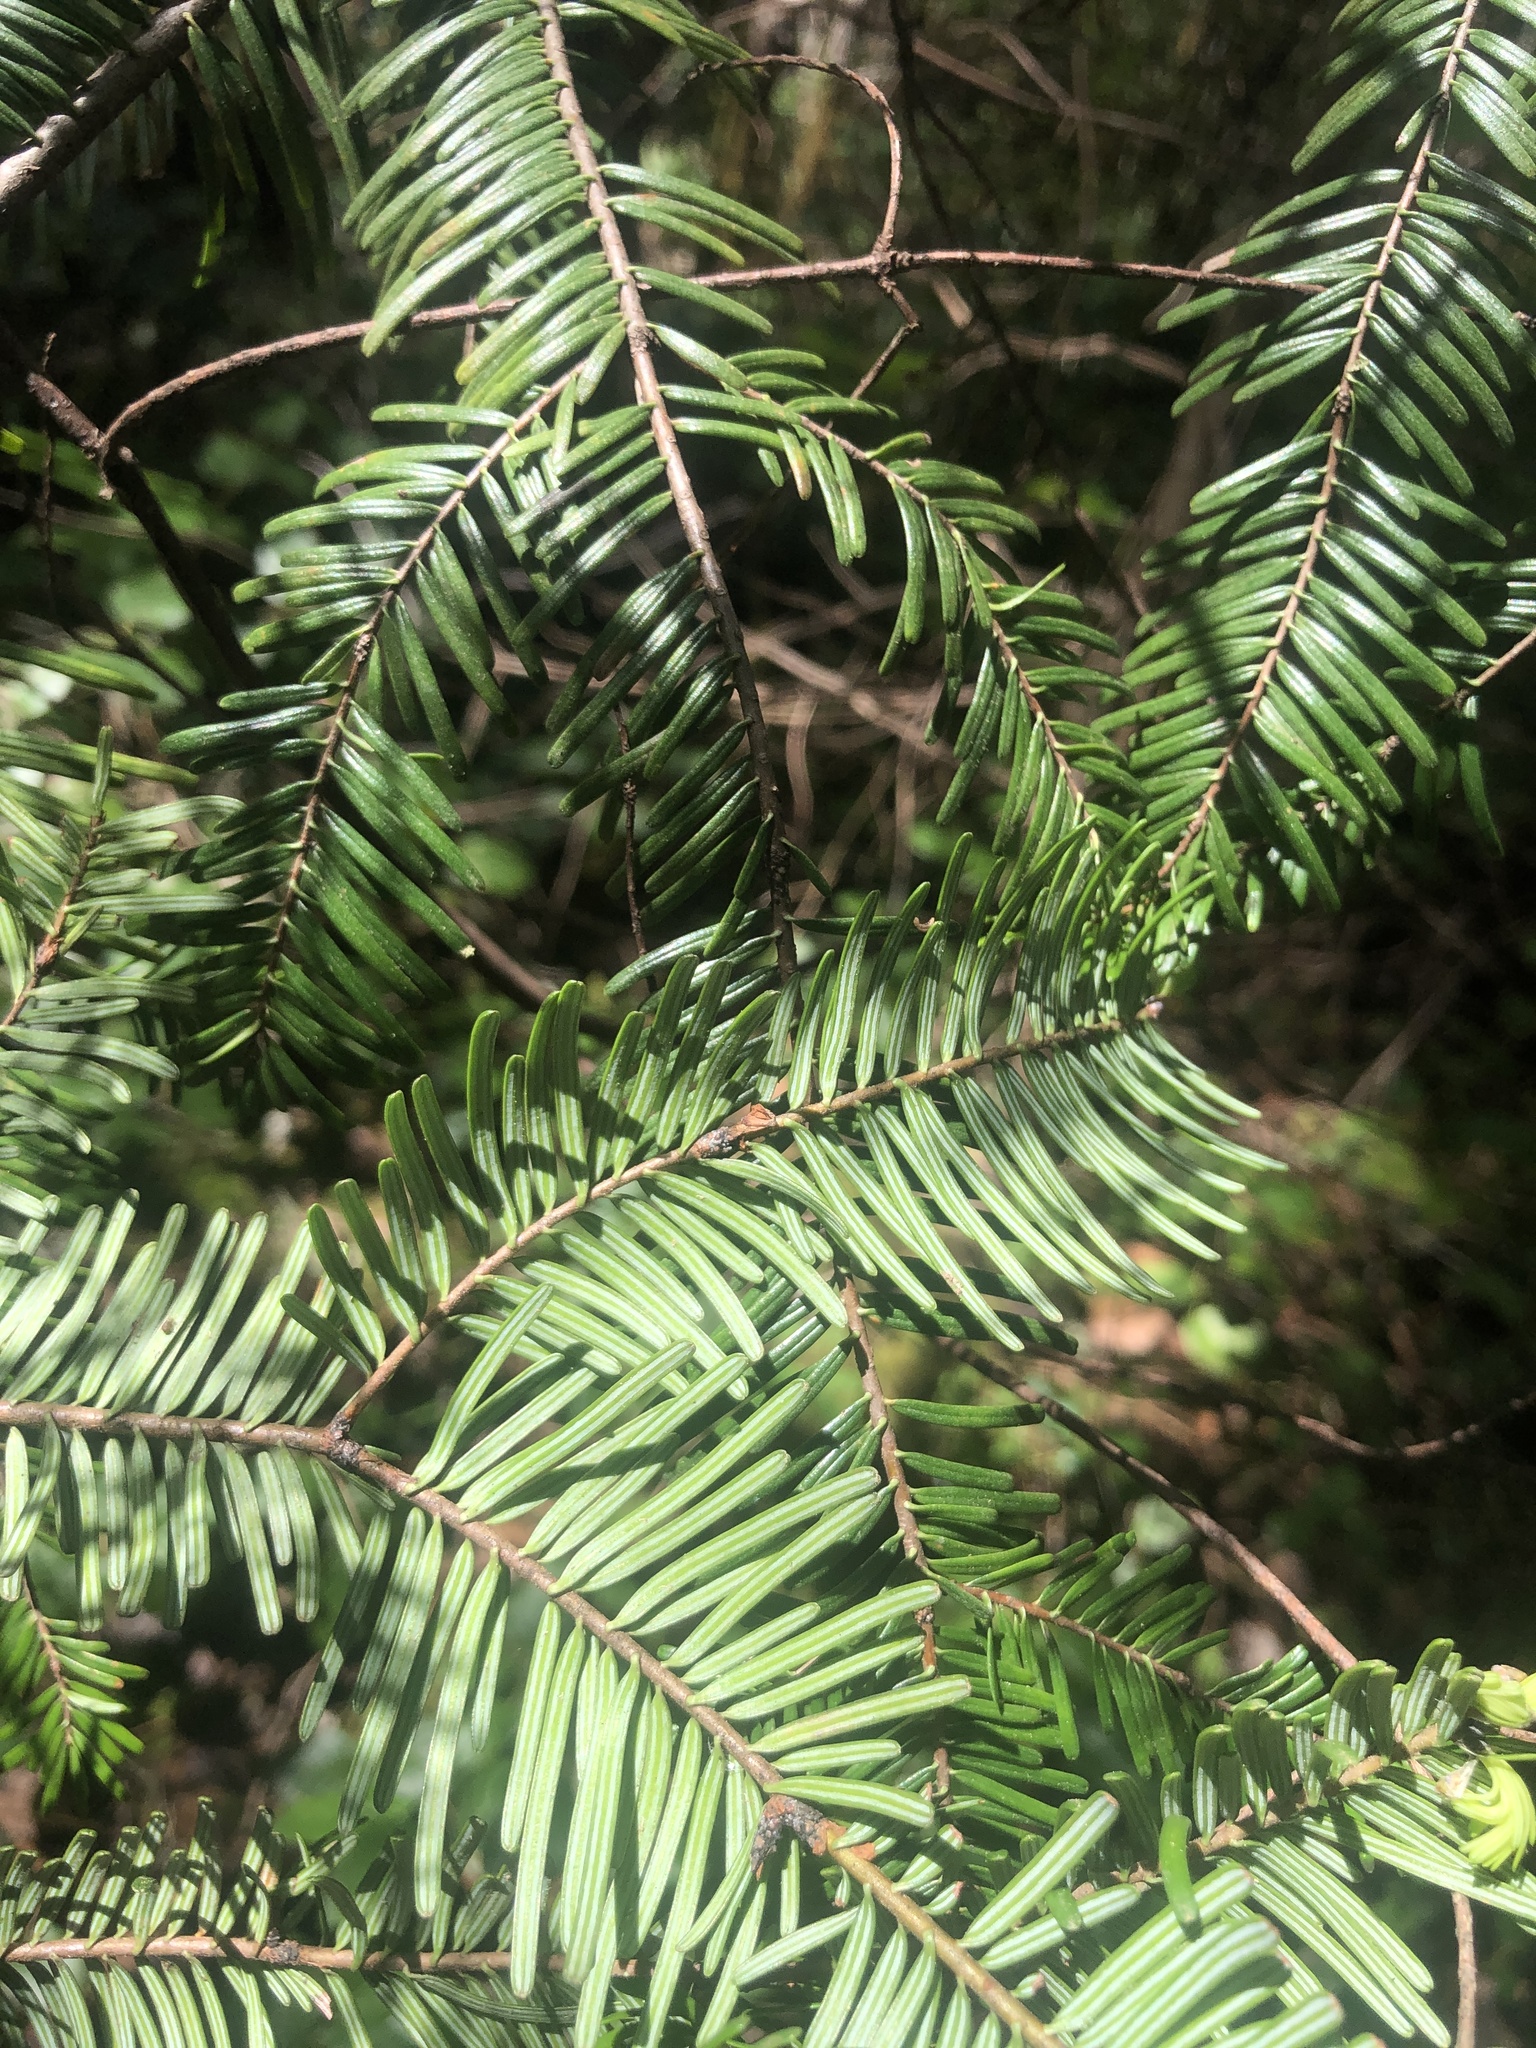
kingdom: Plantae
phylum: Tracheophyta
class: Pinopsida
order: Pinales
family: Pinaceae
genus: Abies
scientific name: Abies grandis
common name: Giant fir
